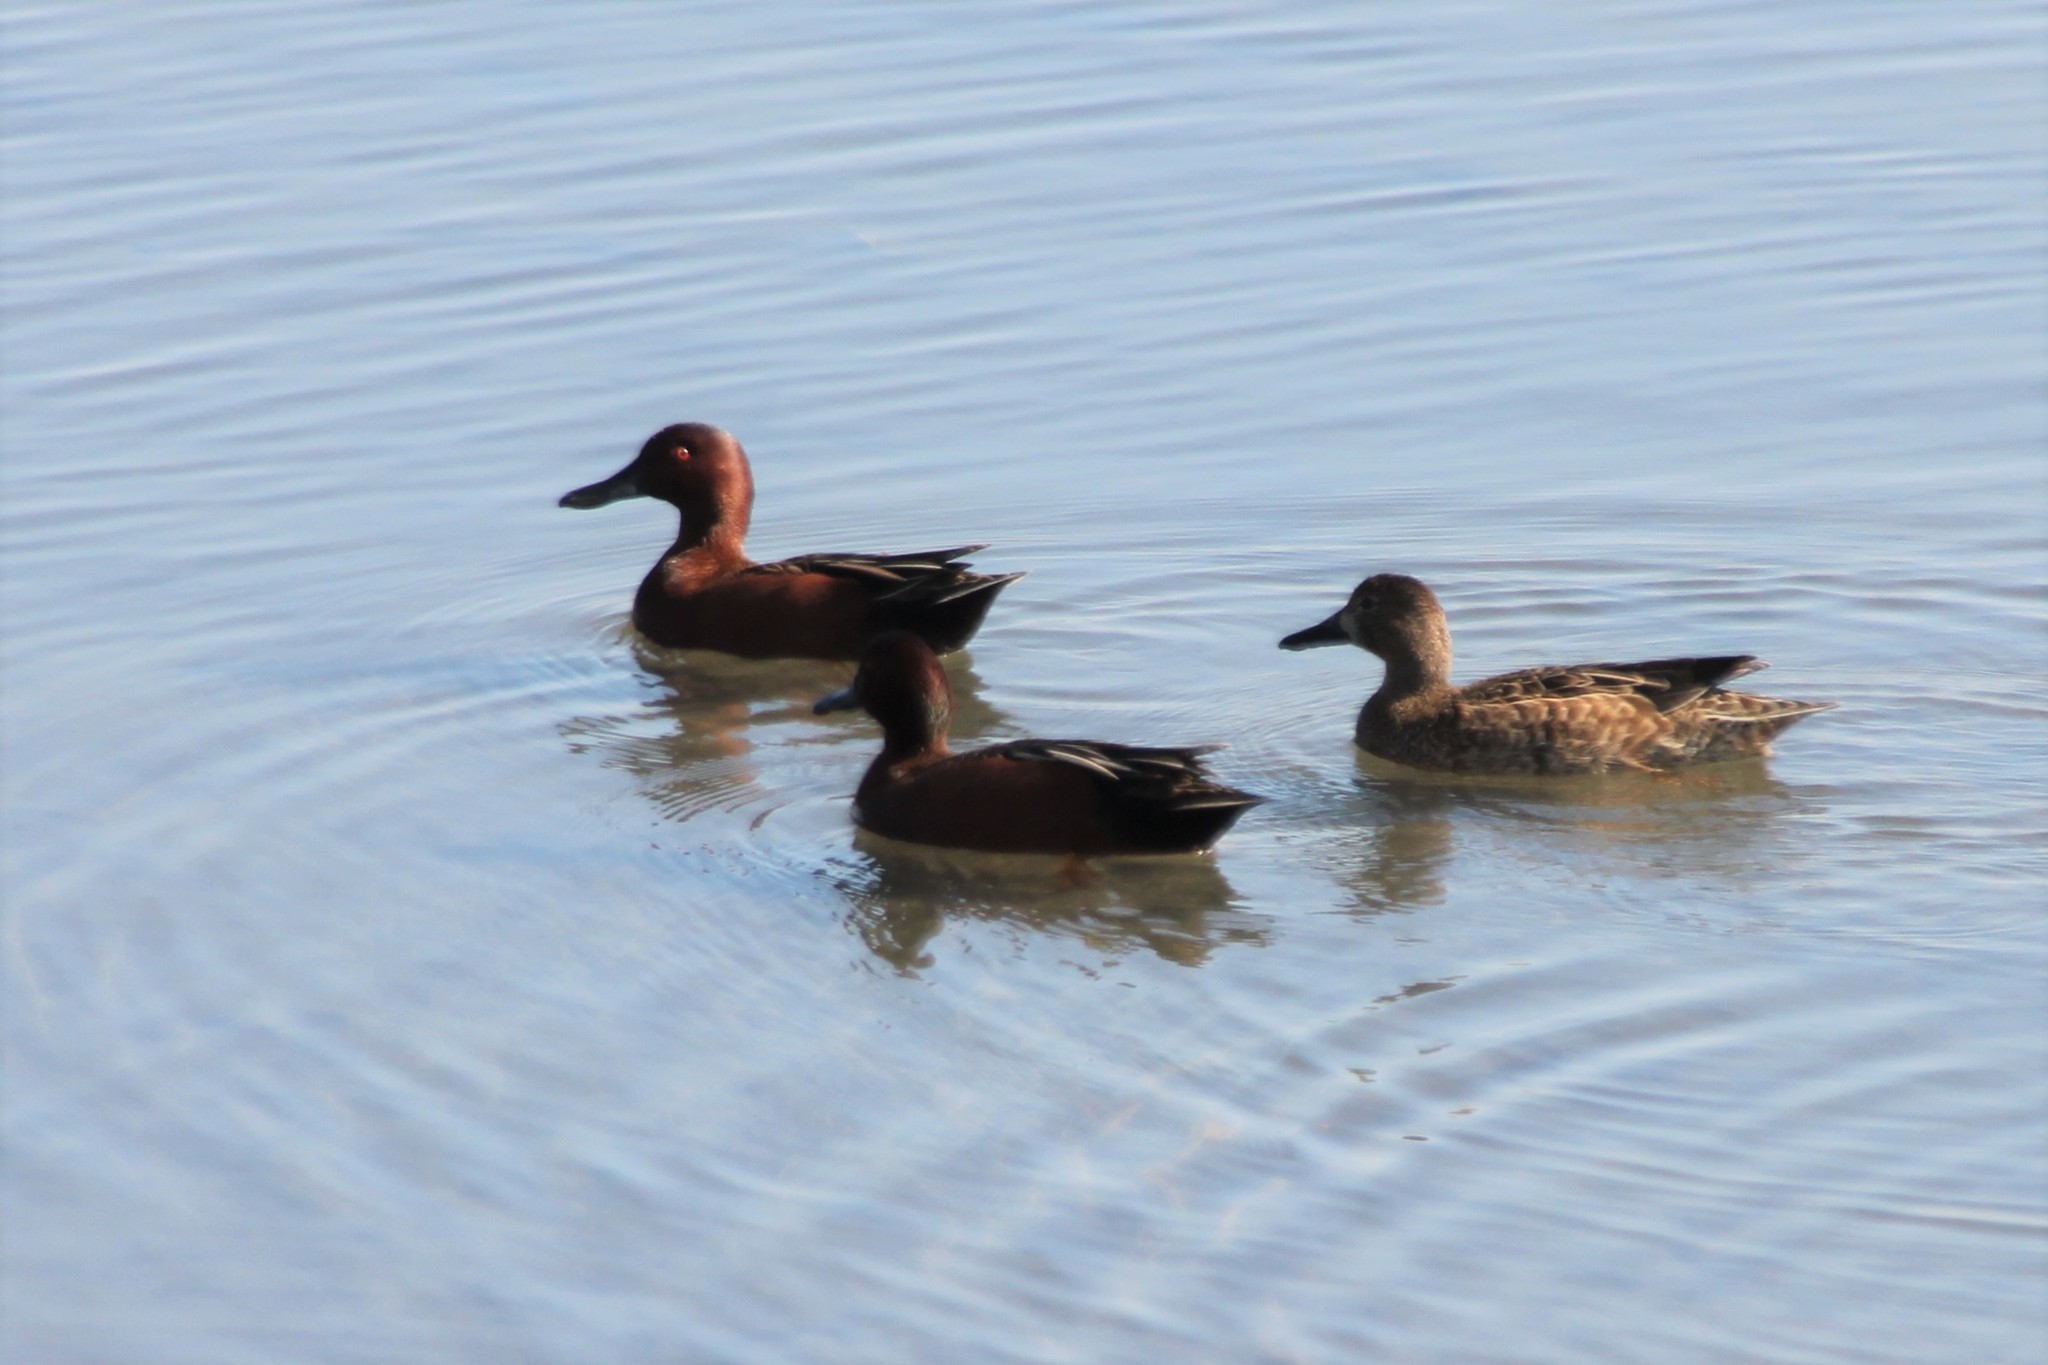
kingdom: Animalia
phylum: Chordata
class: Aves
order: Anseriformes
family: Anatidae
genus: Spatula
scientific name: Spatula cyanoptera
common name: Cinnamon teal
